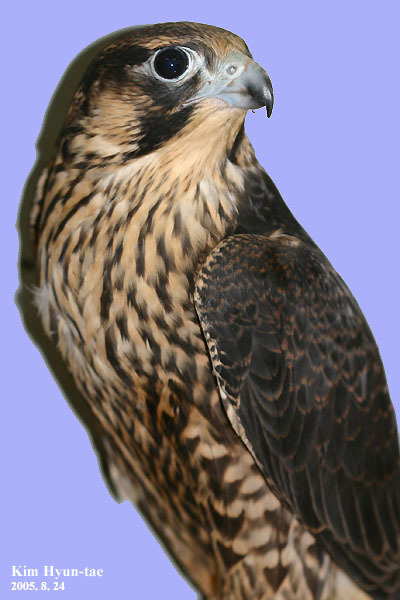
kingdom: Animalia
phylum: Chordata
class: Aves
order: Falconiformes
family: Falconidae
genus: Falco
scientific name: Falco peregrinus
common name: Peregrine falcon
